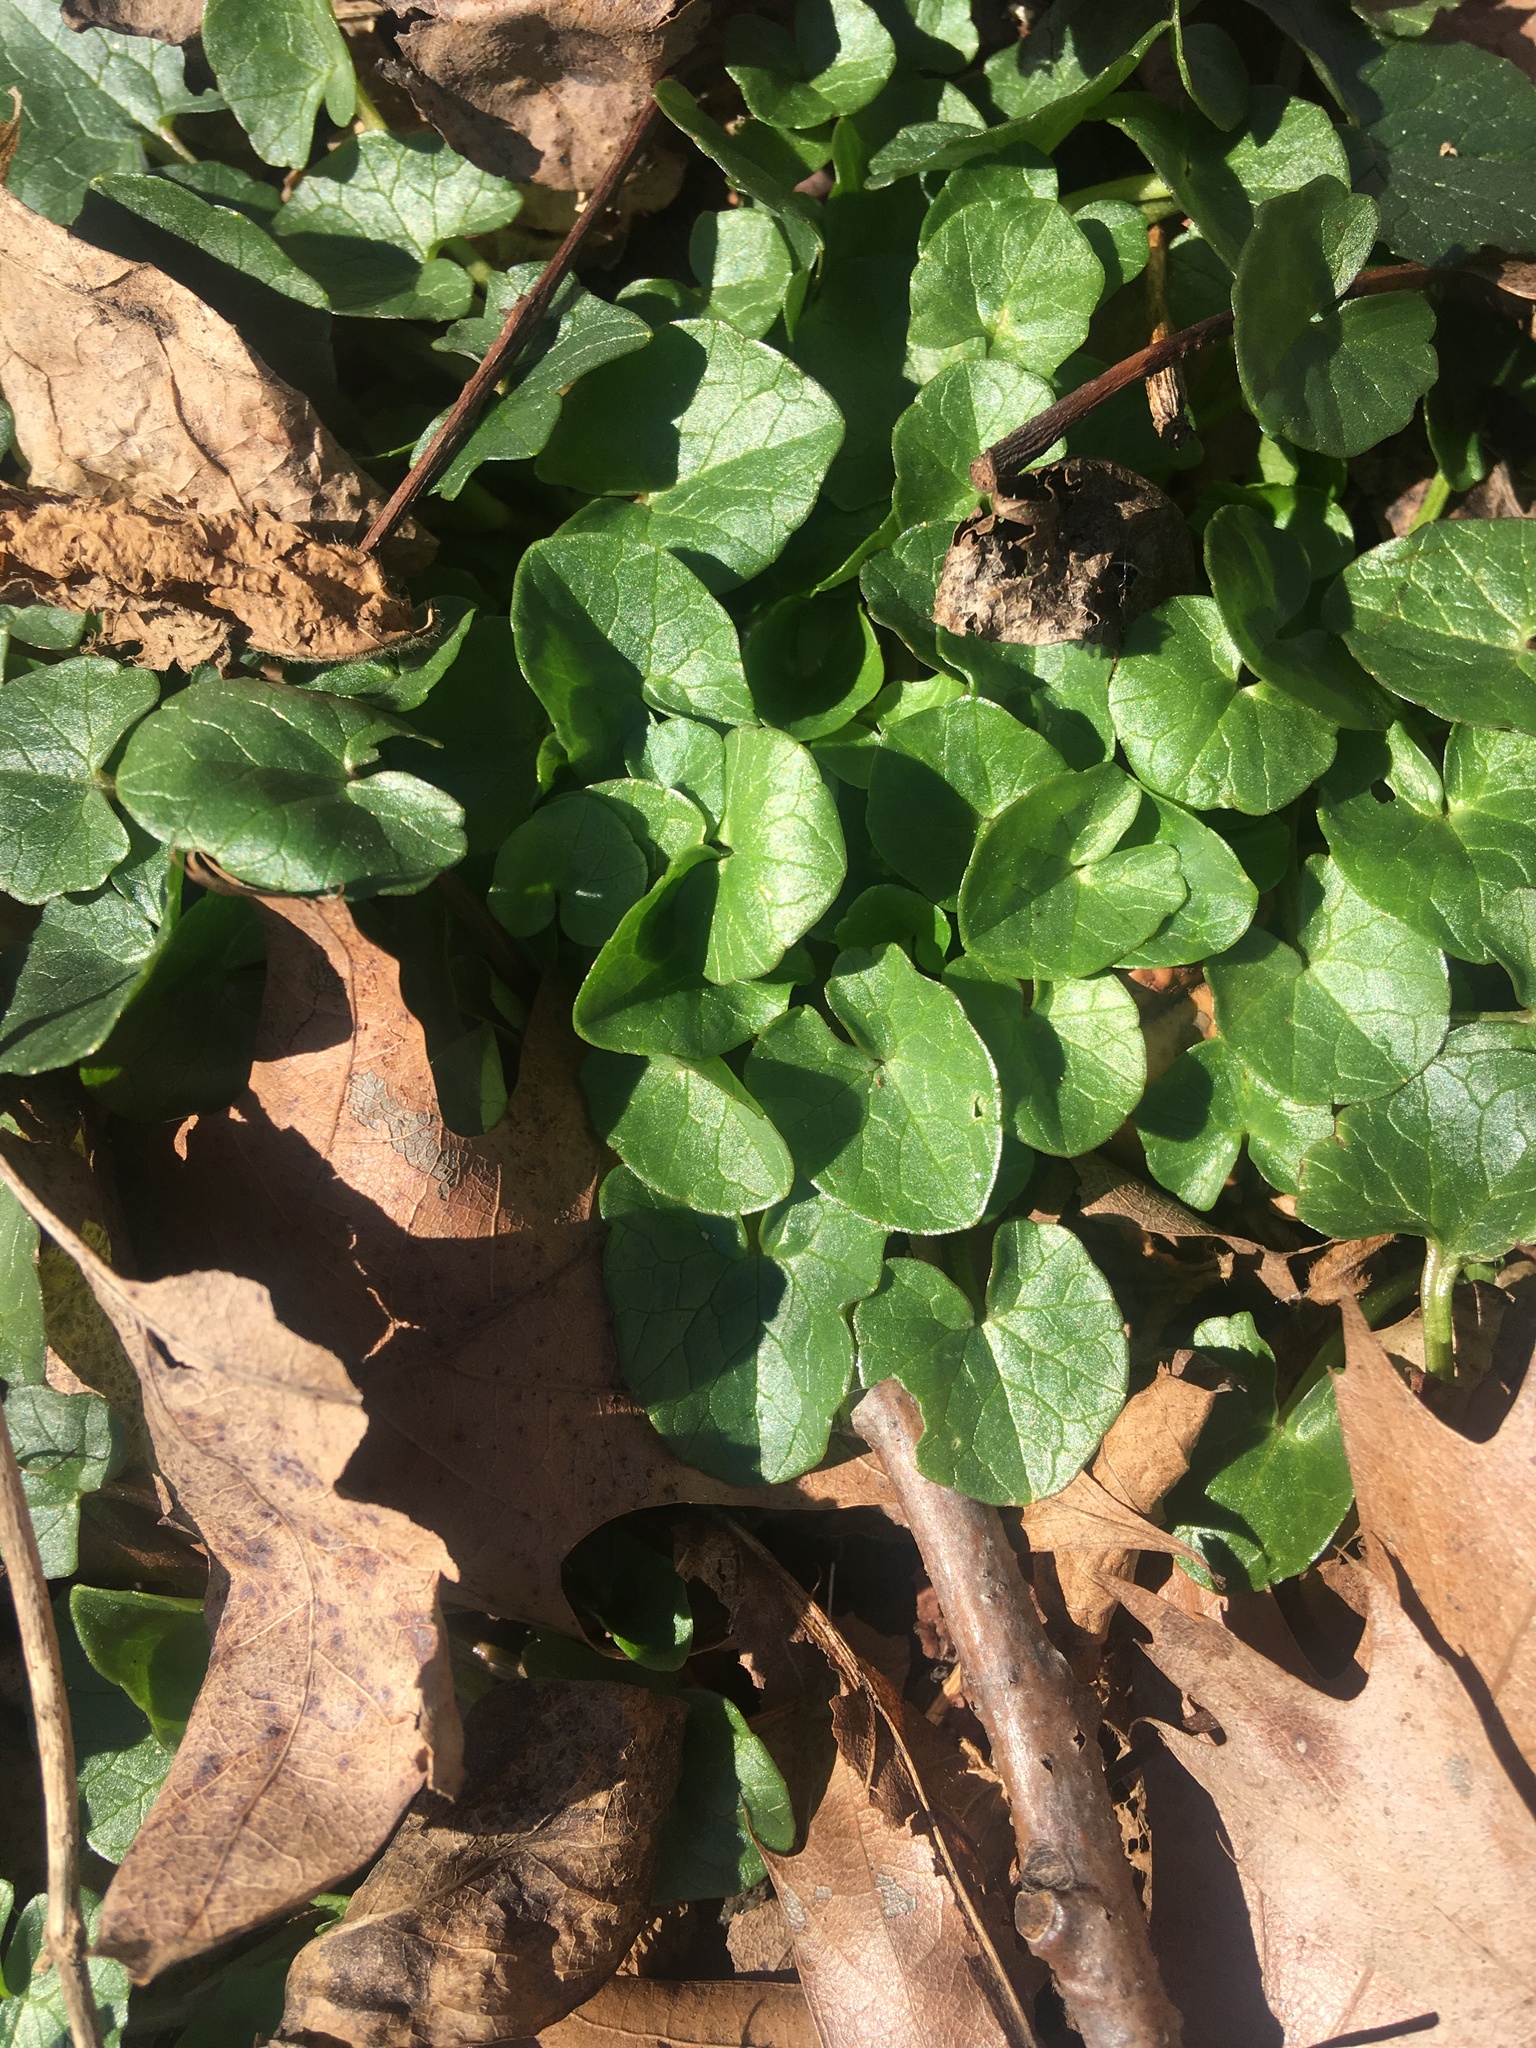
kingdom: Plantae
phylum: Tracheophyta
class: Magnoliopsida
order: Ranunculales
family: Ranunculaceae
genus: Ficaria
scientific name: Ficaria verna
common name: Lesser celandine
